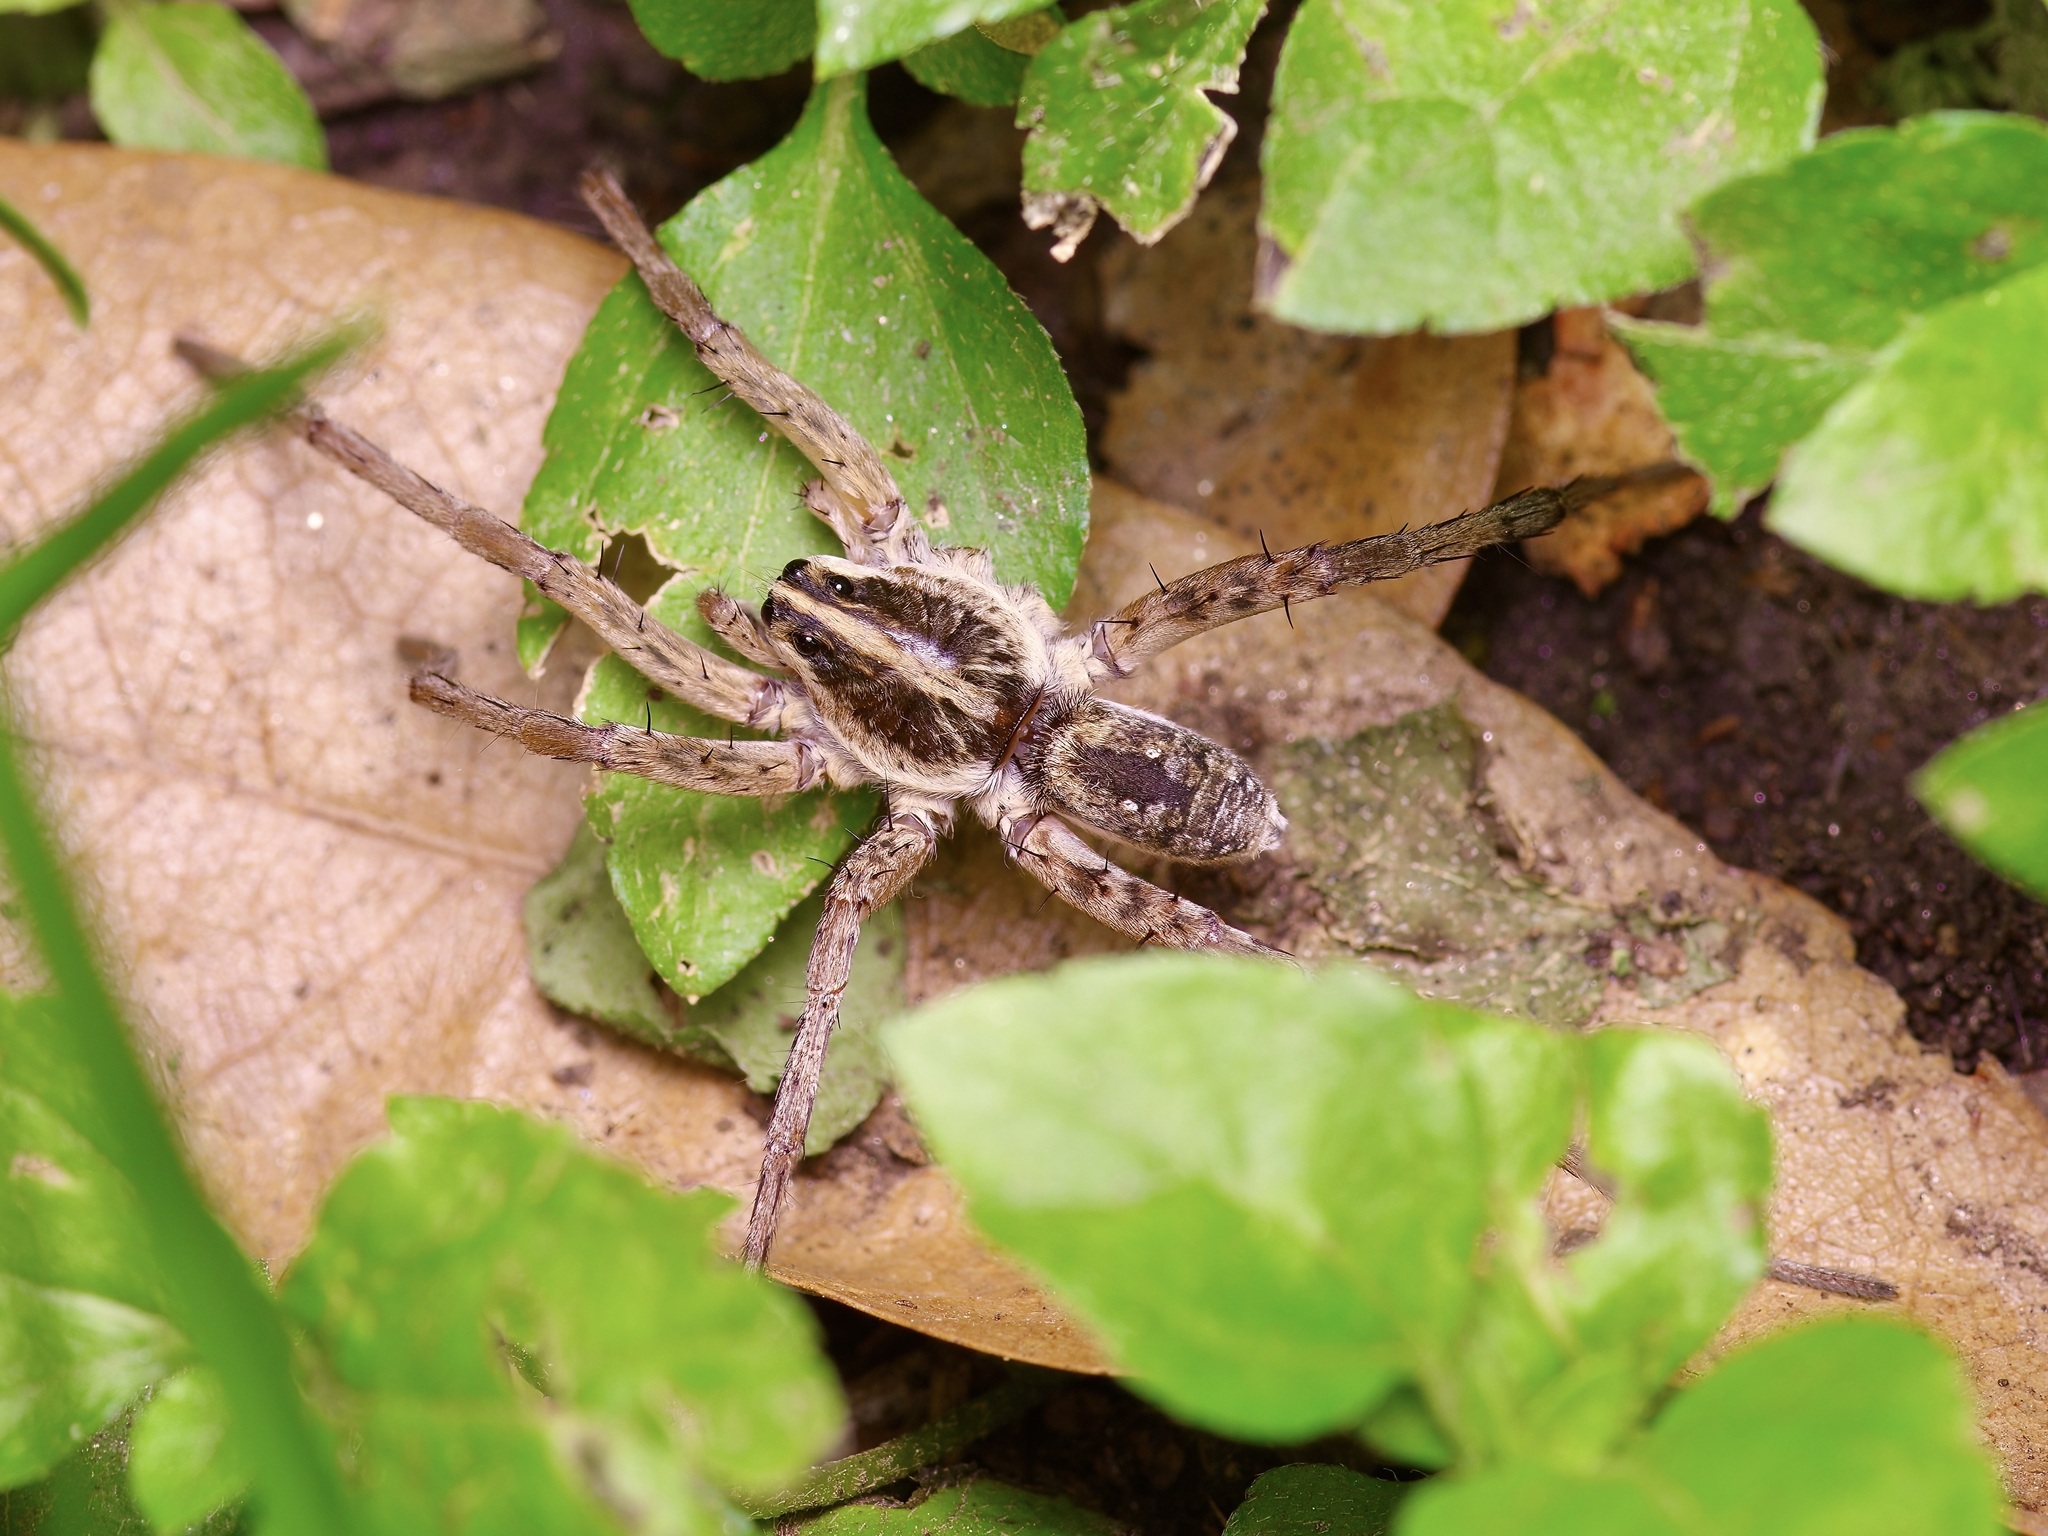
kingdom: Animalia
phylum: Arthropoda
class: Arachnida
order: Araneae
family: Lycosidae
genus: Hogna
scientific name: Hogna antelucana
